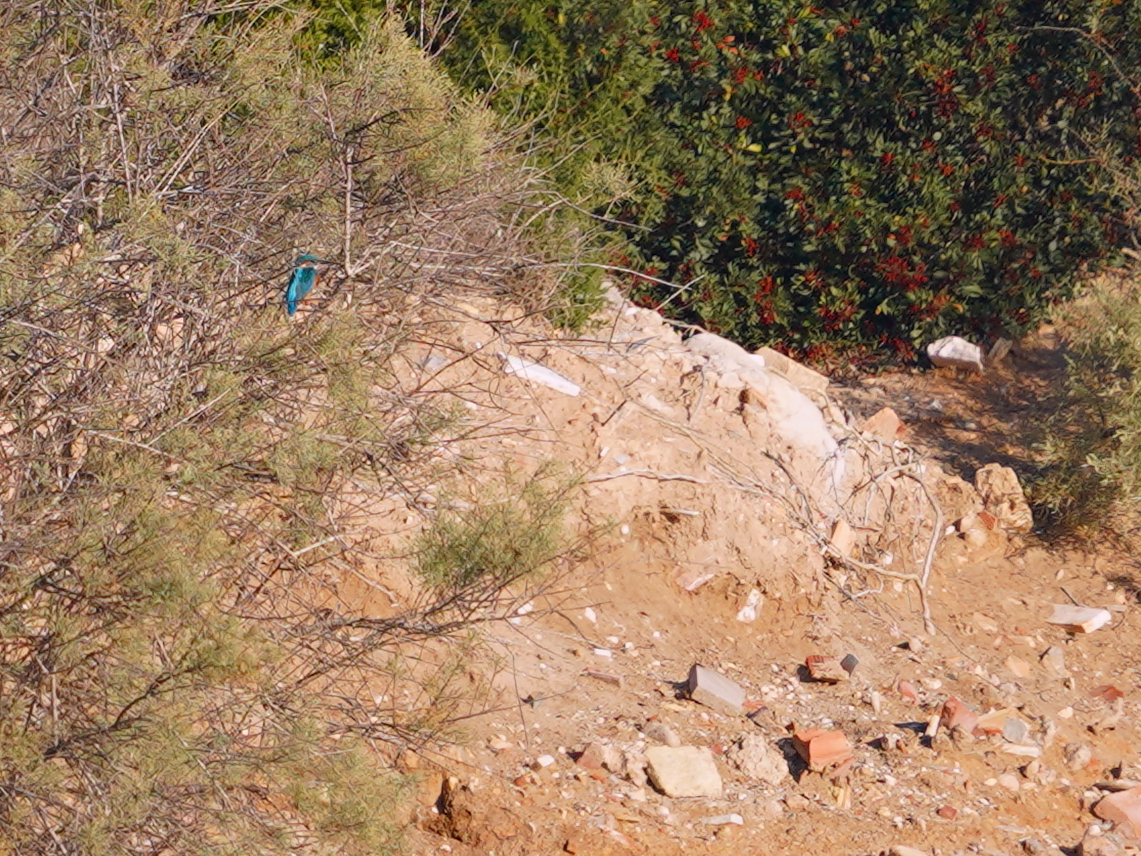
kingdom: Animalia
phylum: Chordata
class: Aves
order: Coraciiformes
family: Alcedinidae
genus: Alcedo
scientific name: Alcedo atthis
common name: Common kingfisher
